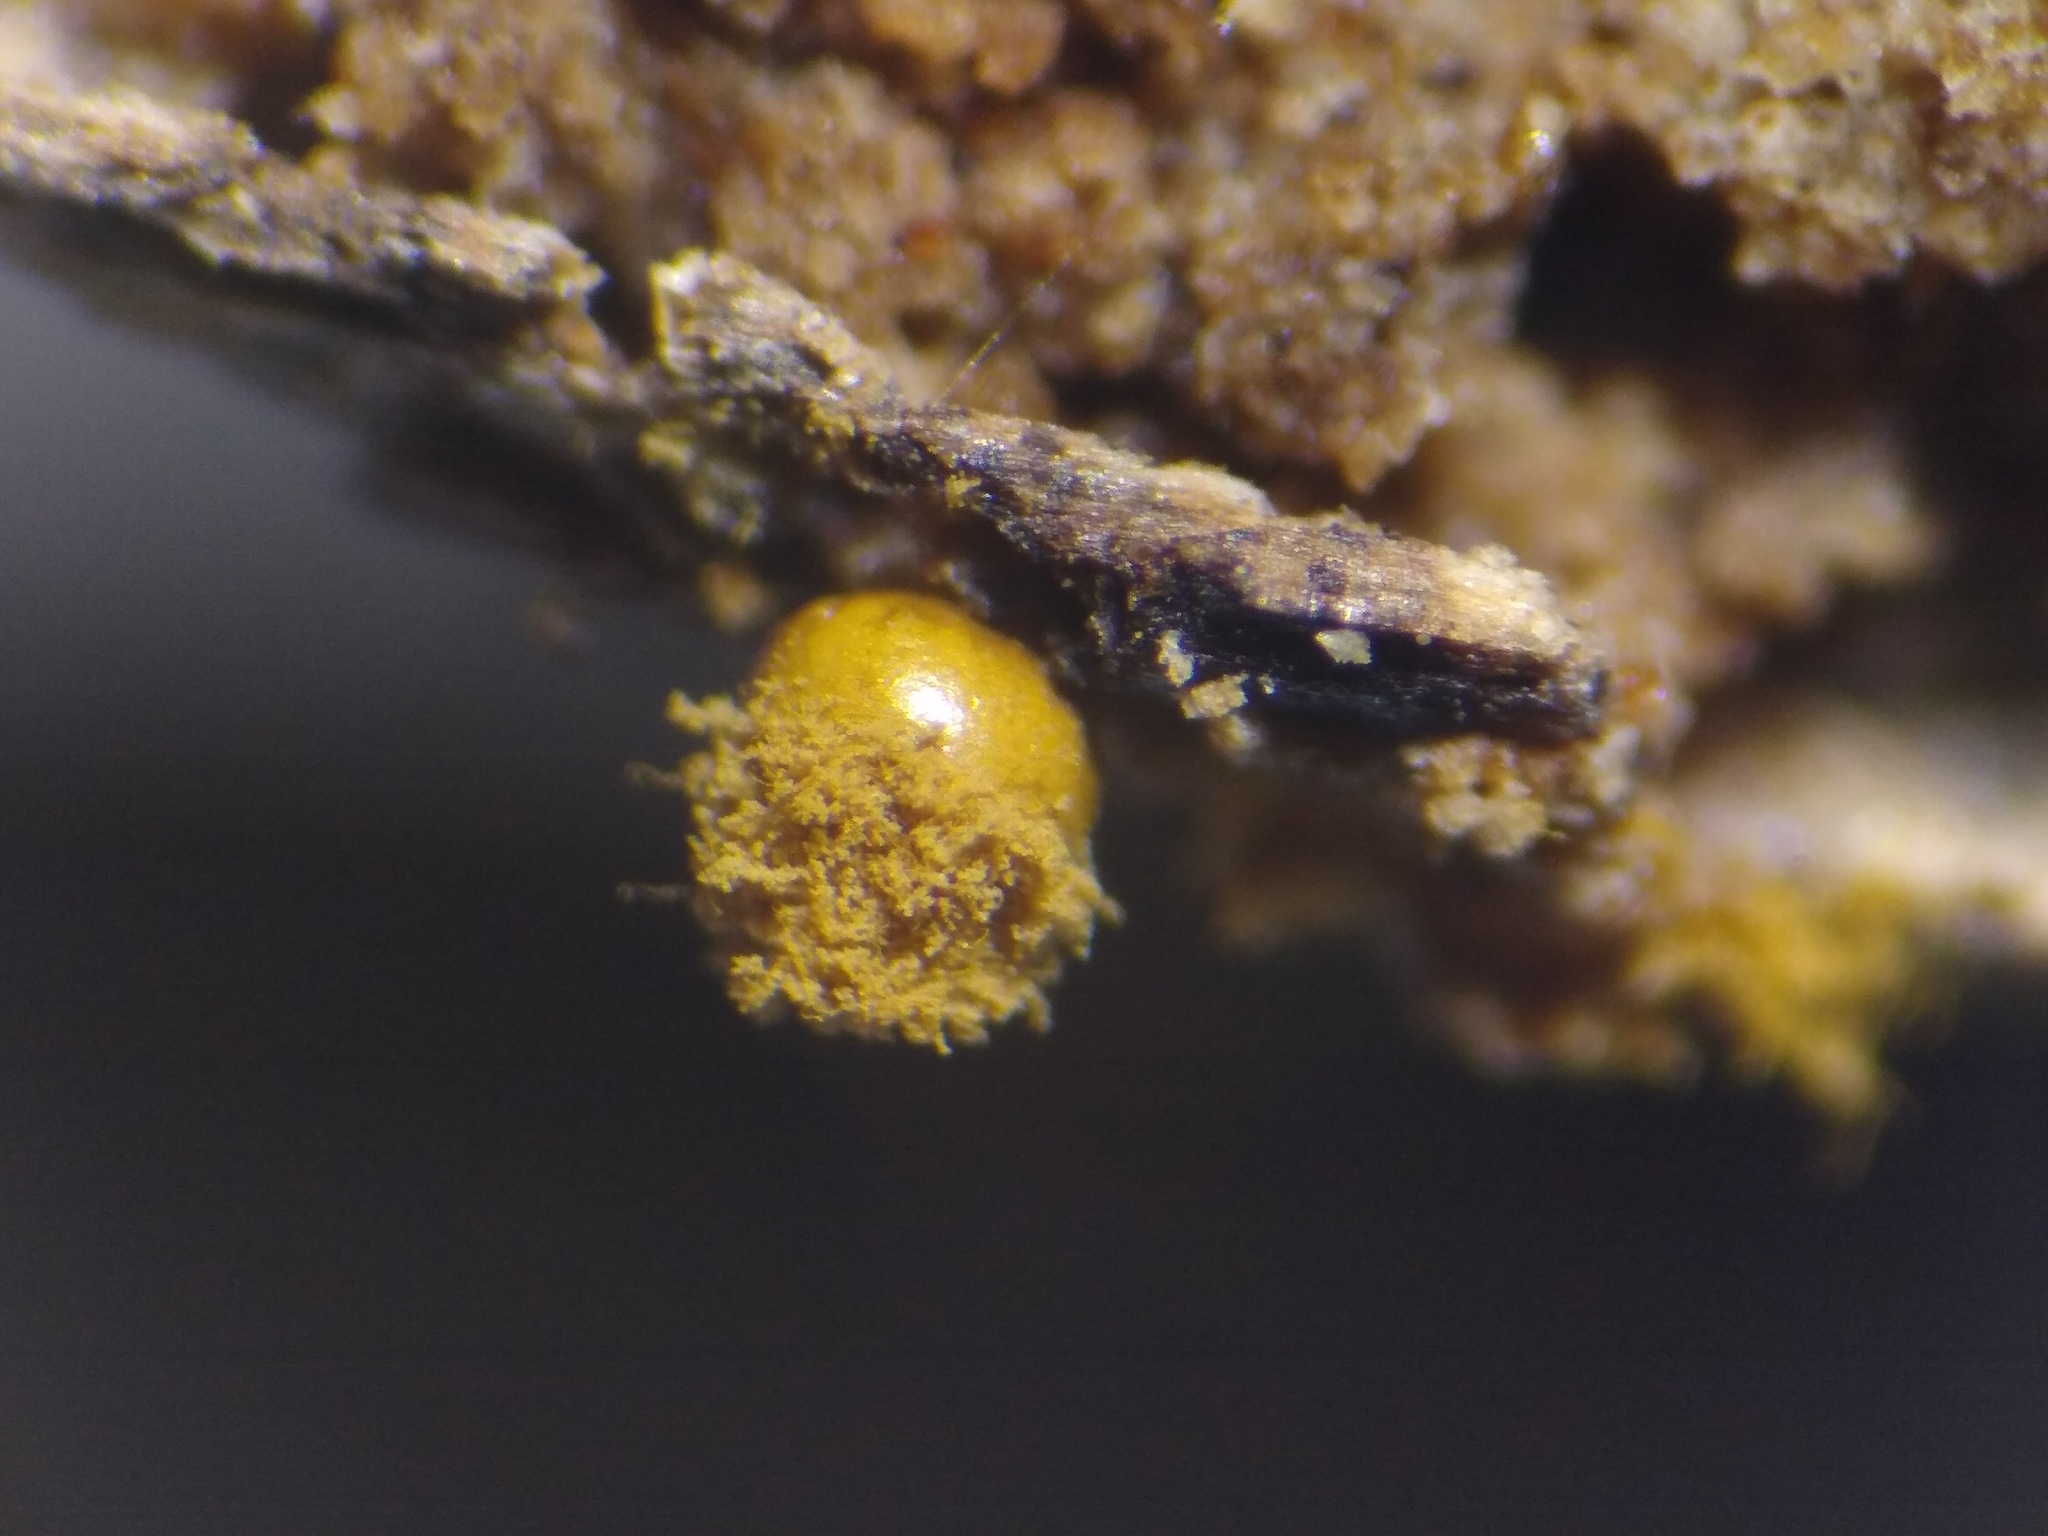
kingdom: Protozoa
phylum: Mycetozoa
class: Myxomycetes
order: Trichiales
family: Trichiaceae
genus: Trichia
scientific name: Trichia crateriformis
